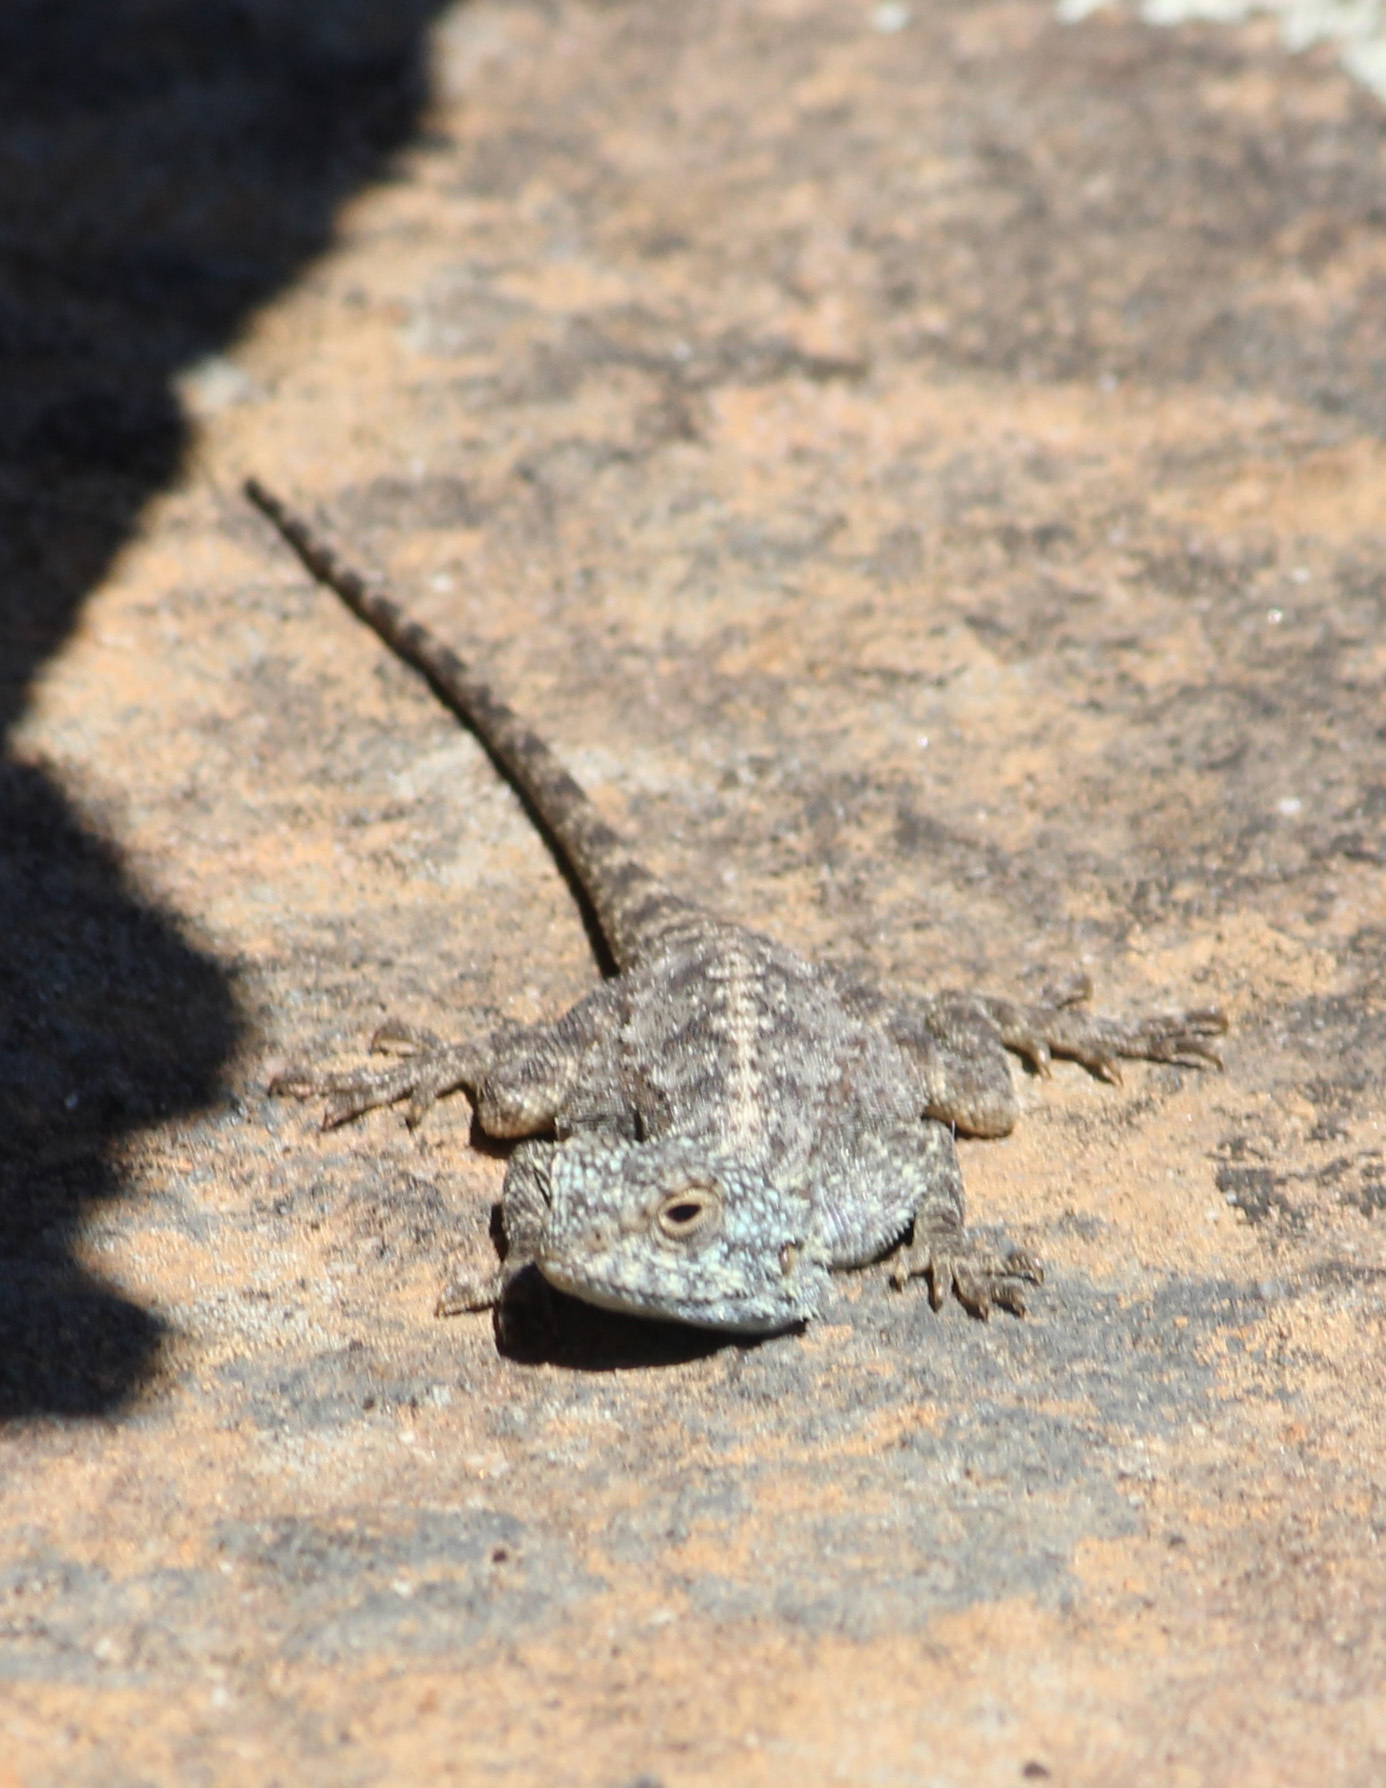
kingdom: Animalia
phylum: Chordata
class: Squamata
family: Agamidae
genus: Agama
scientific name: Agama atra
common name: Southern african rock agama
